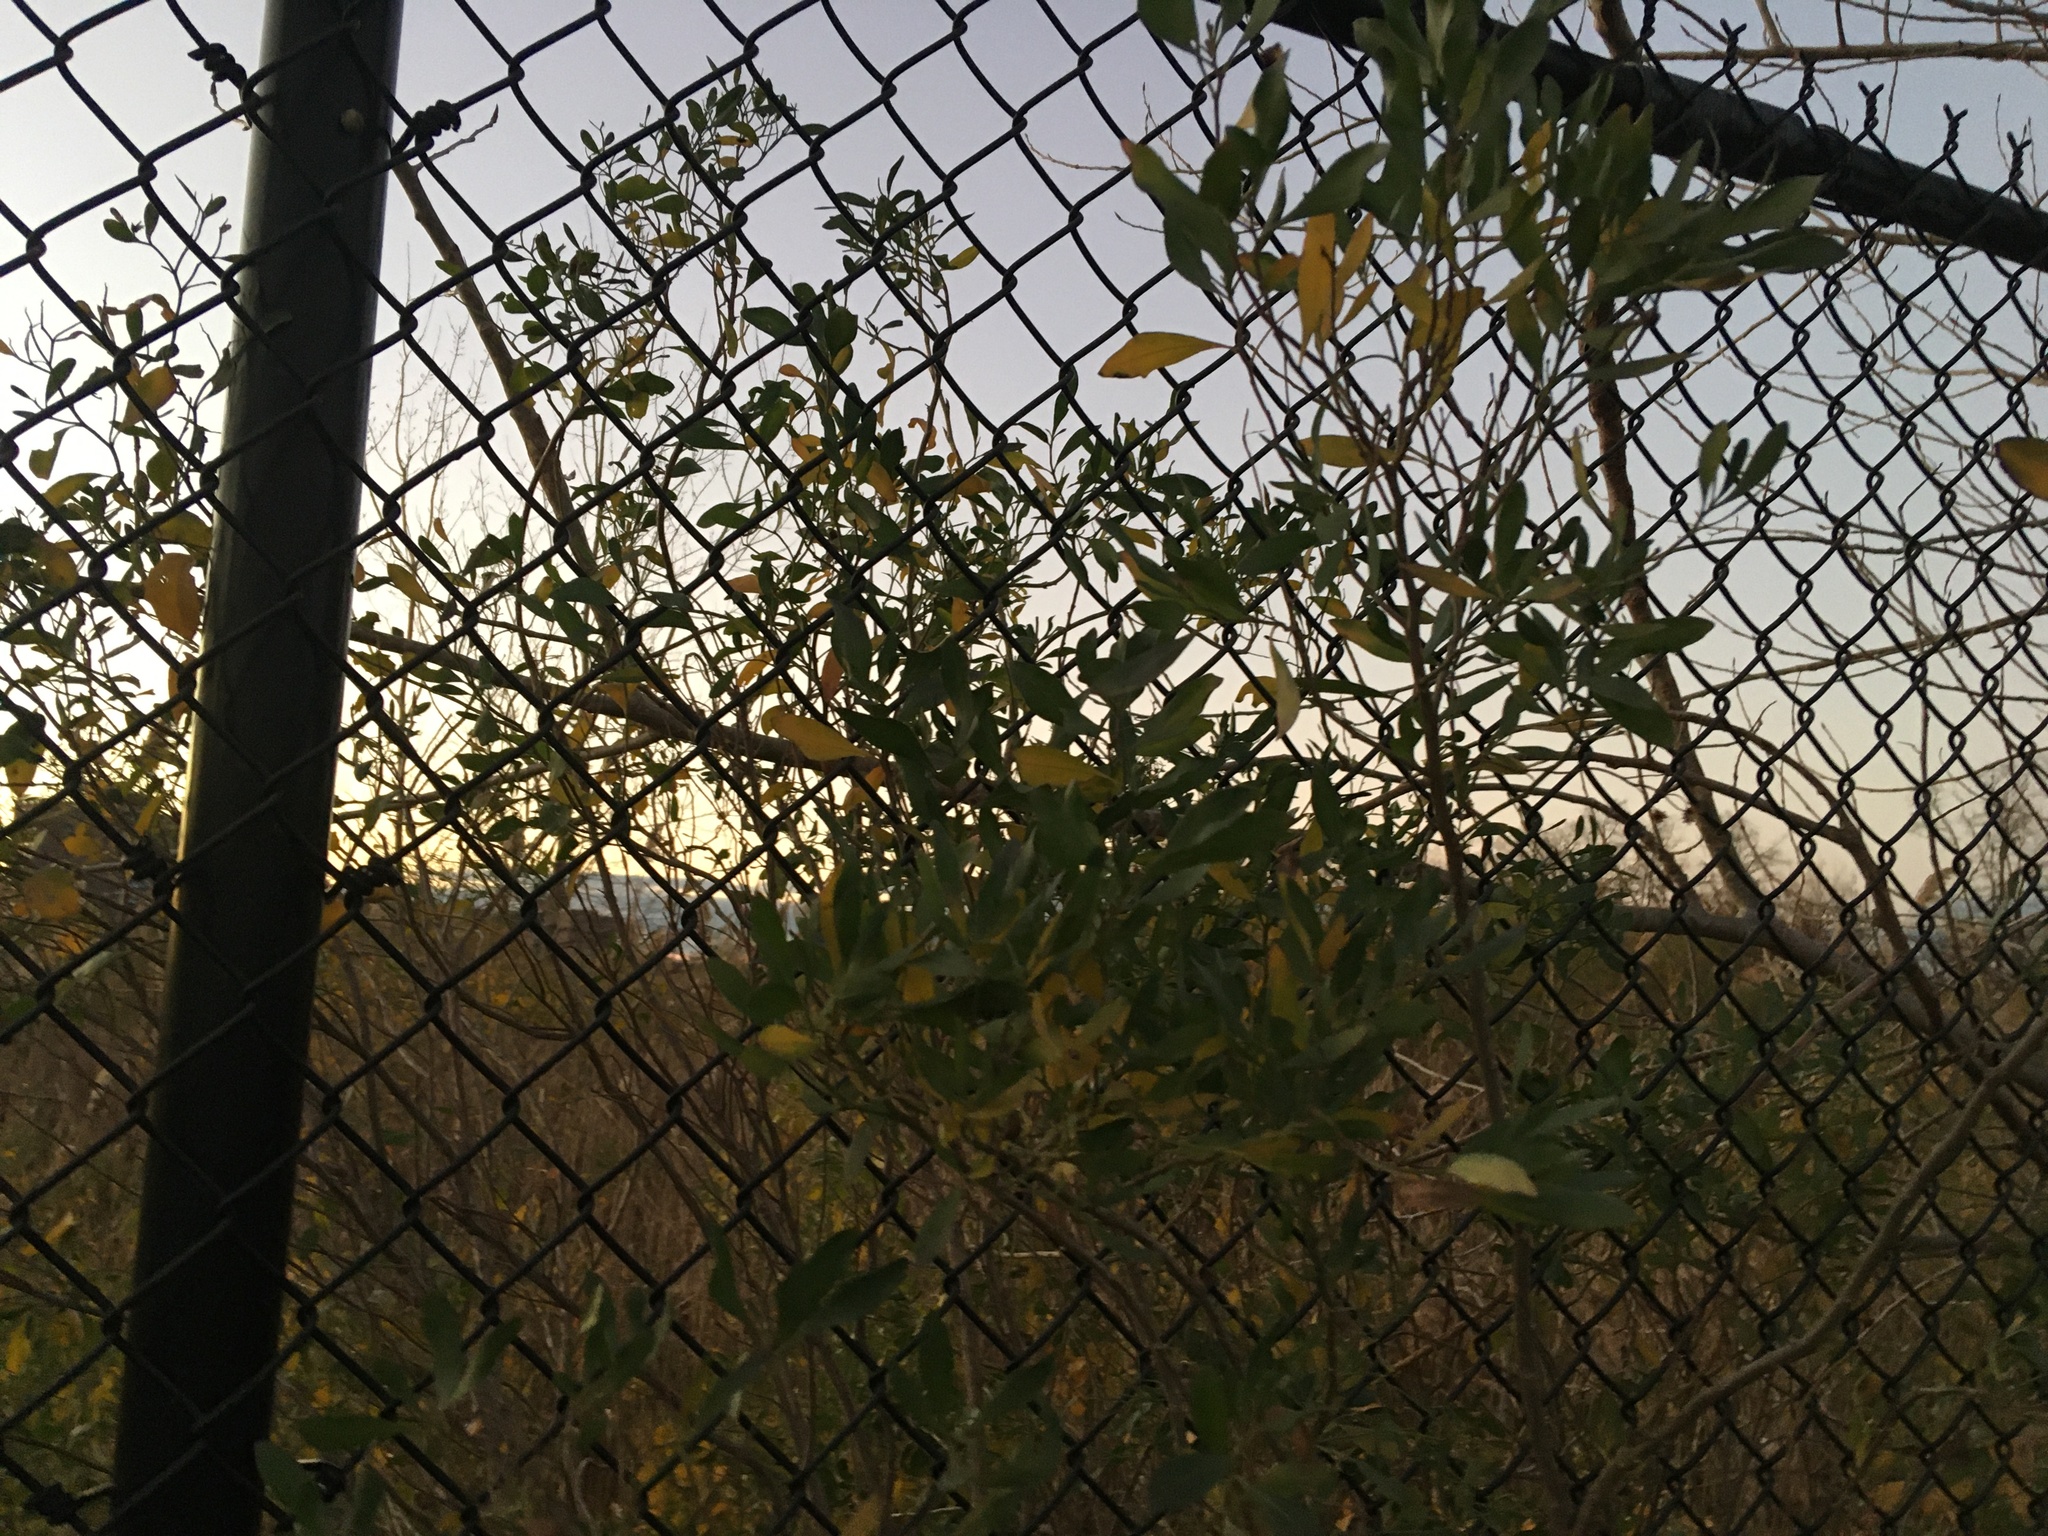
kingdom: Plantae
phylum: Tracheophyta
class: Magnoliopsida
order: Asterales
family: Asteraceae
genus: Baccharis
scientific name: Baccharis halimifolia
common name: Eastern baccharis
